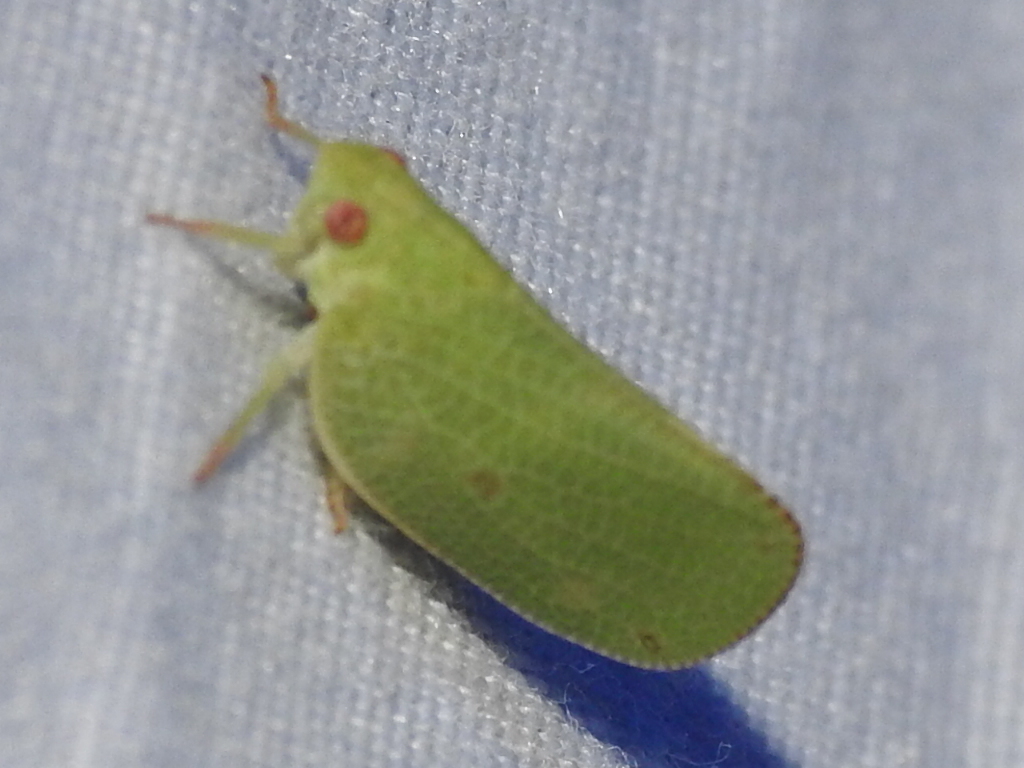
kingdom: Animalia
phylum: Arthropoda
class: Insecta
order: Hemiptera
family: Acanaloniidae
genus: Acanalonia
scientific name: Acanalonia conica
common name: Green cone-headed planthopper
